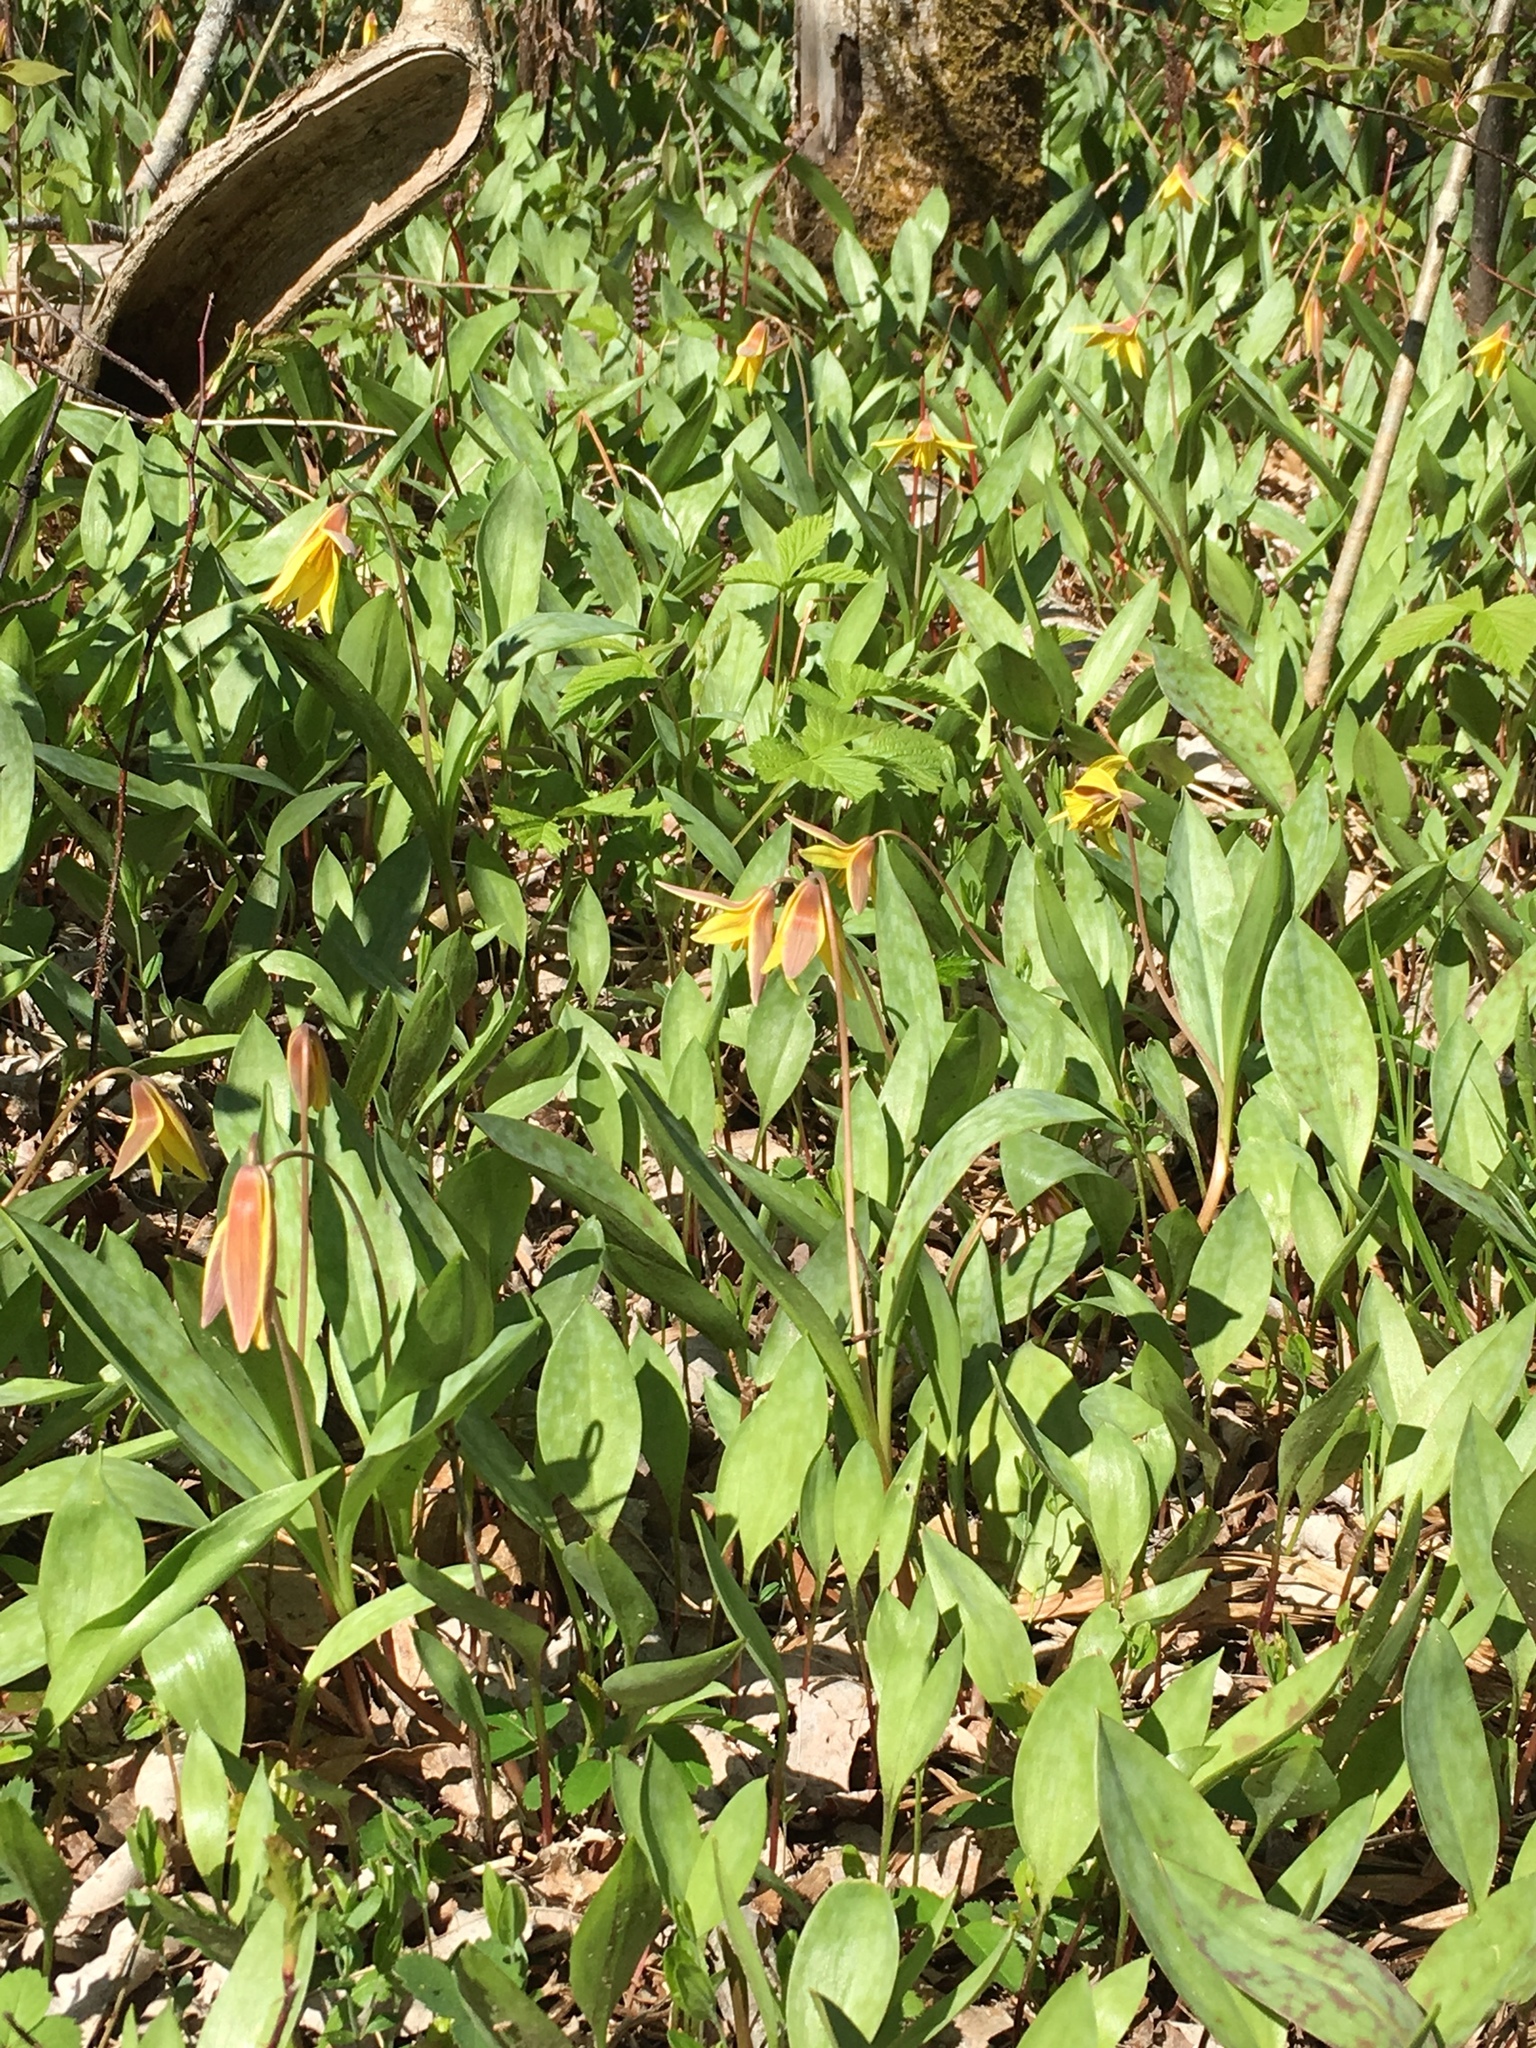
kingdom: Plantae
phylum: Tracheophyta
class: Liliopsida
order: Liliales
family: Liliaceae
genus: Erythronium
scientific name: Erythronium americanum
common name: Yellow adder's-tongue
